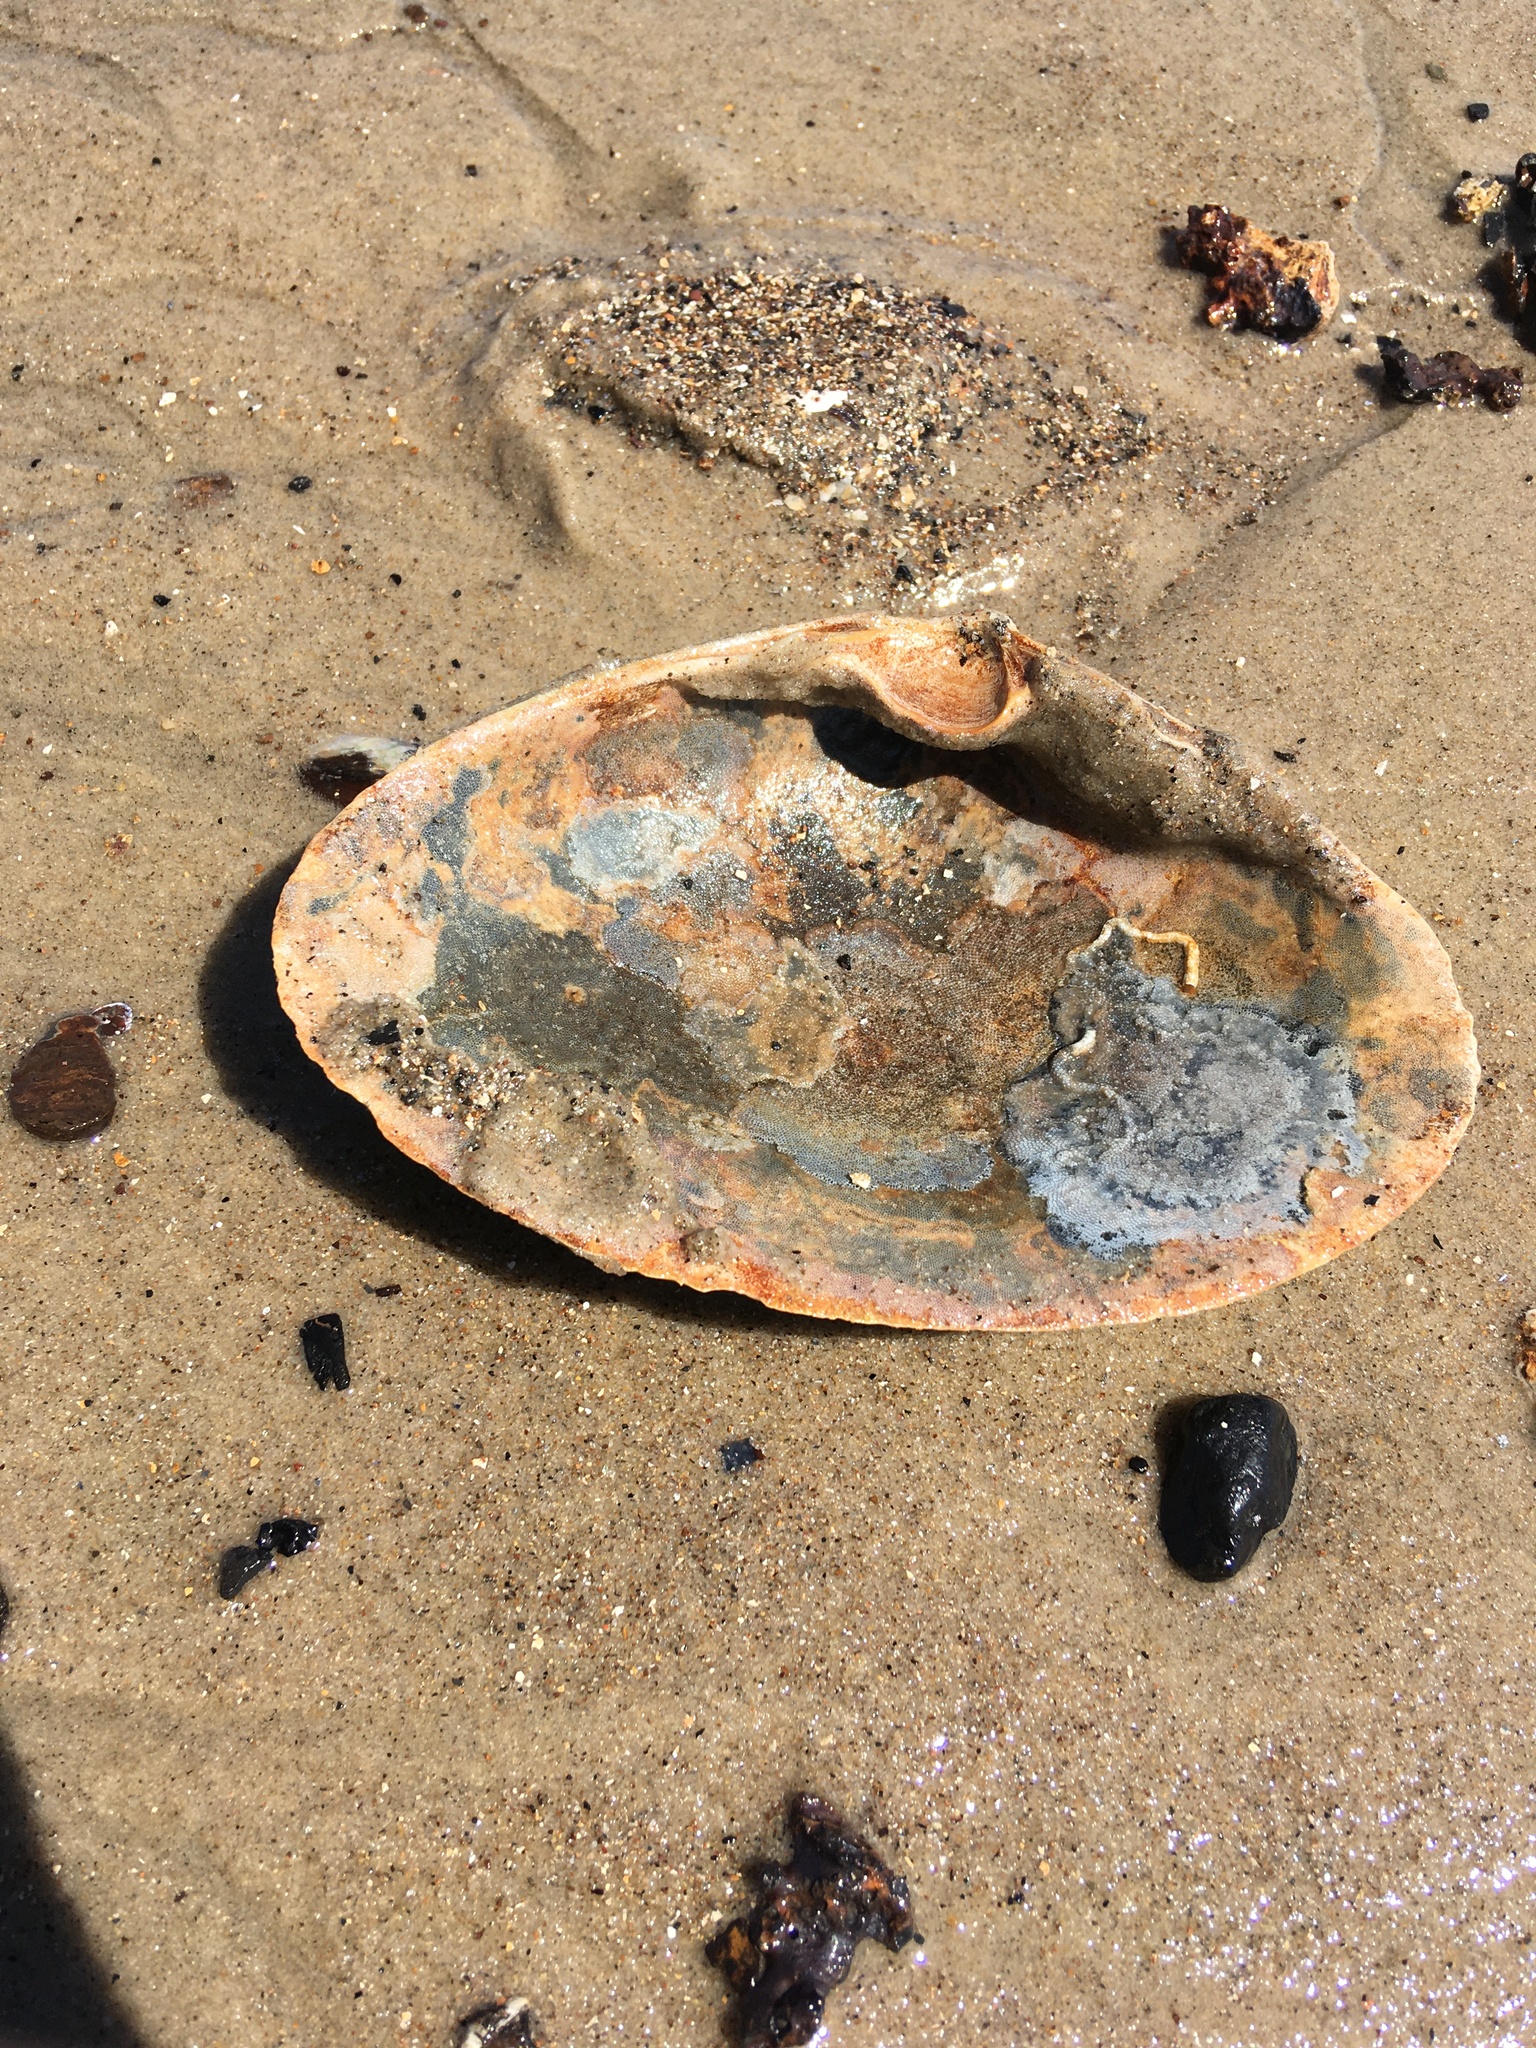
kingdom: Animalia
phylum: Mollusca
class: Bivalvia
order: Venerida
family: Mactridae
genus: Spisula
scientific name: Spisula solidissima
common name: Atlantic surf clam
